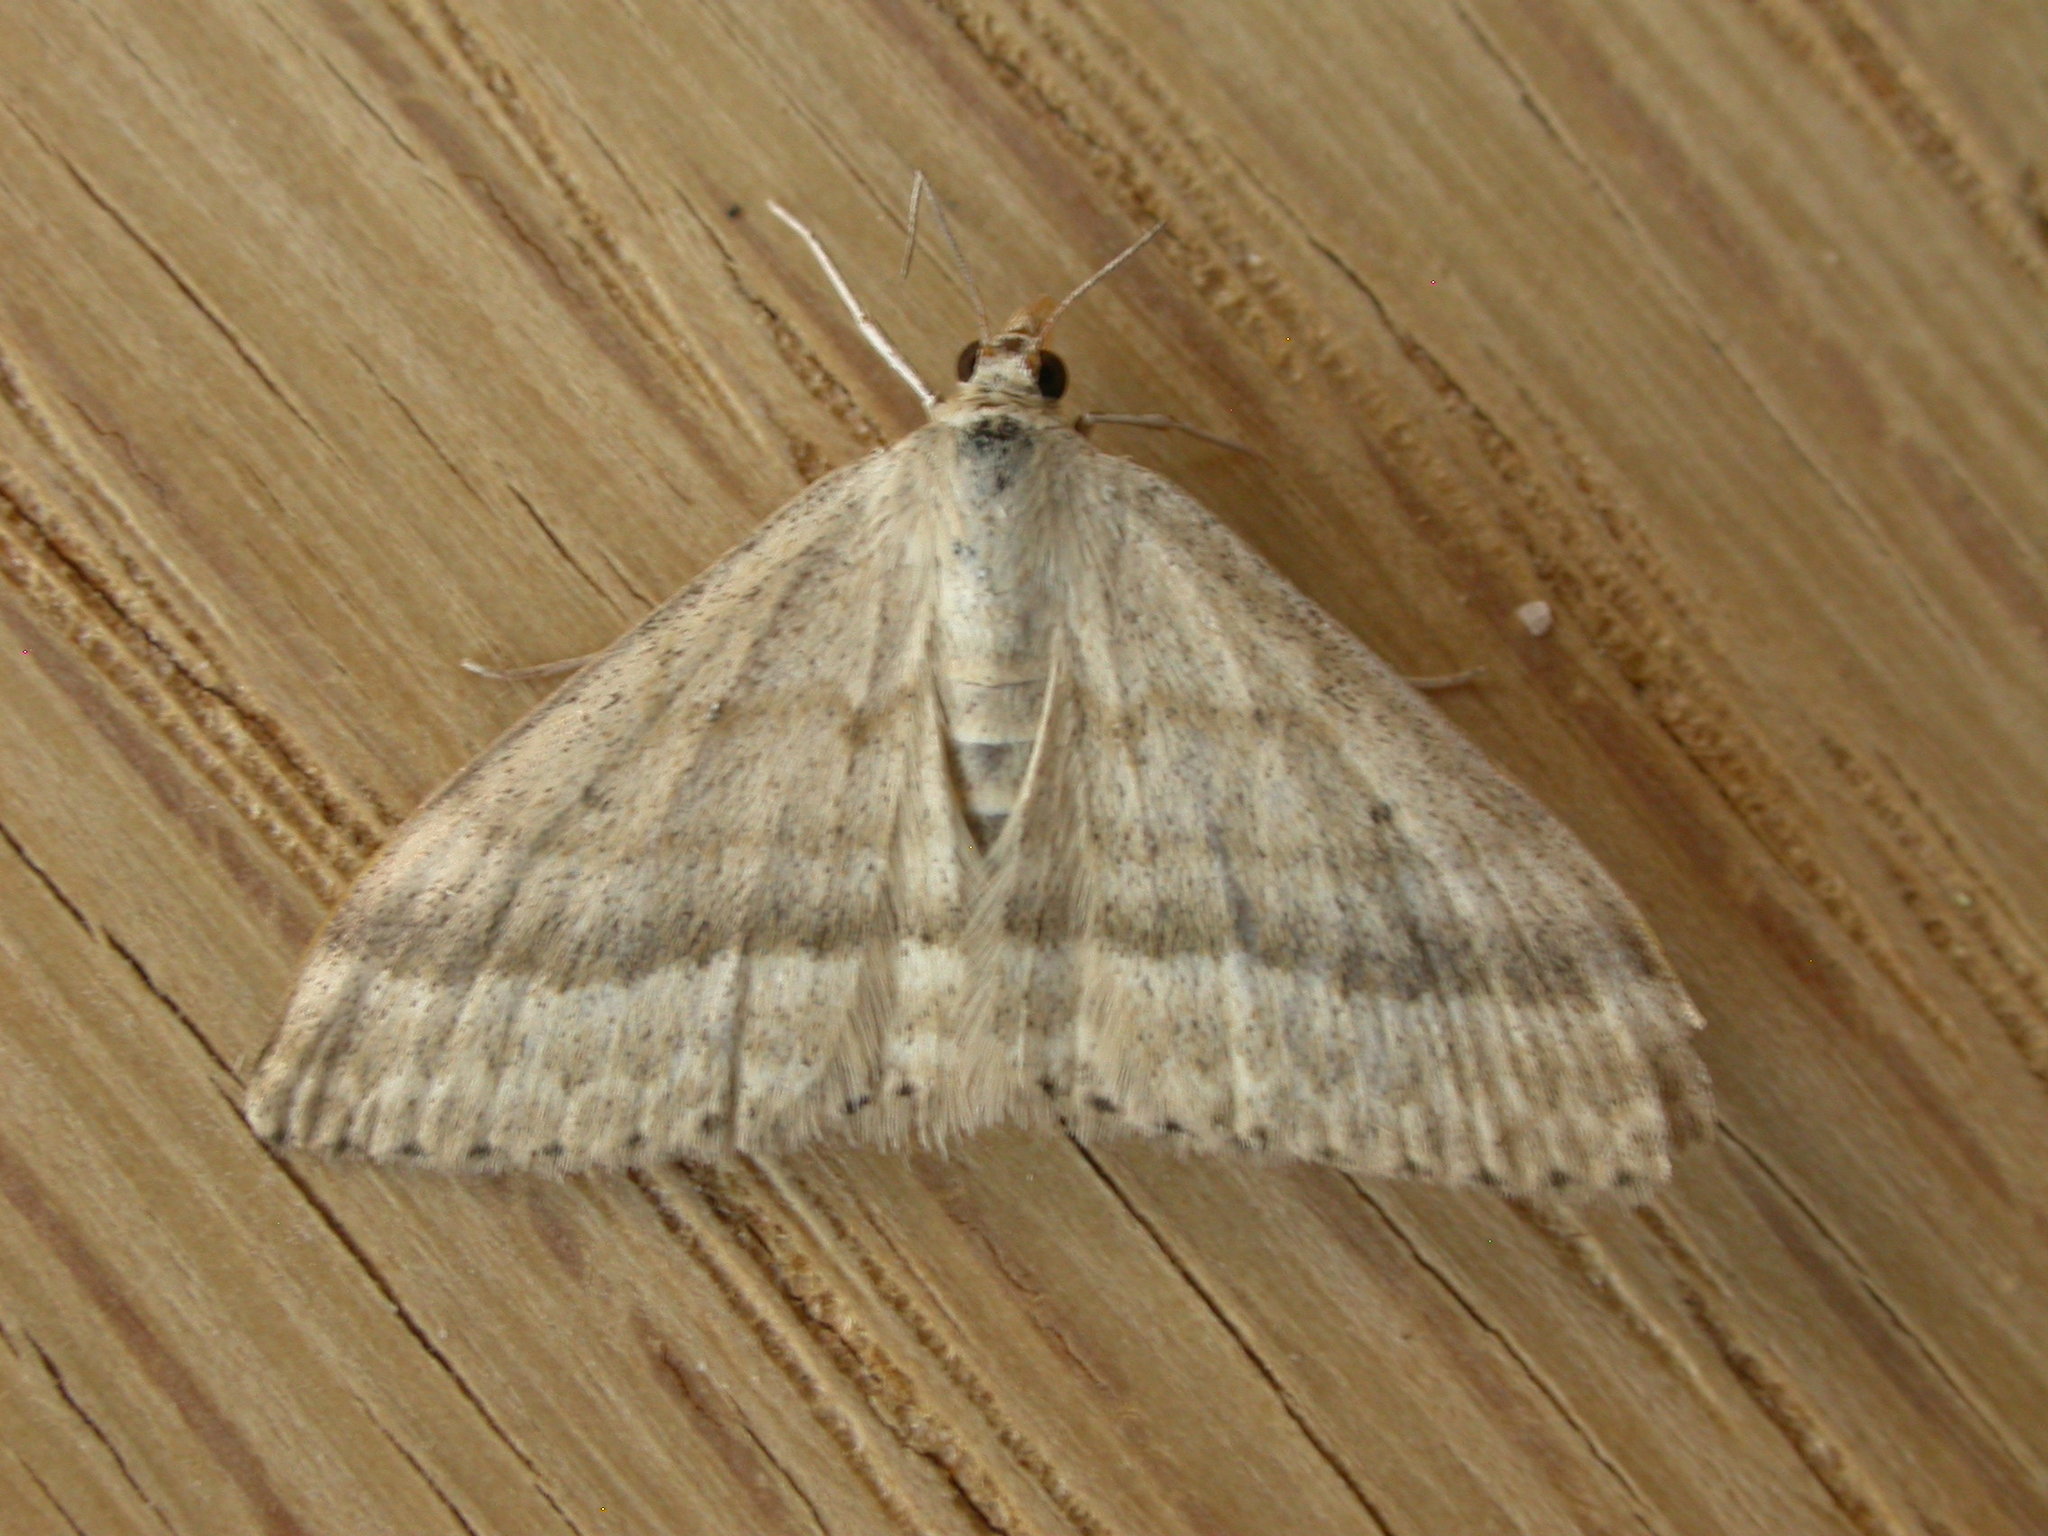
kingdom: Animalia
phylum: Arthropoda
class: Insecta
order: Lepidoptera
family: Geometridae
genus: Scopula
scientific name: Scopula lydia
